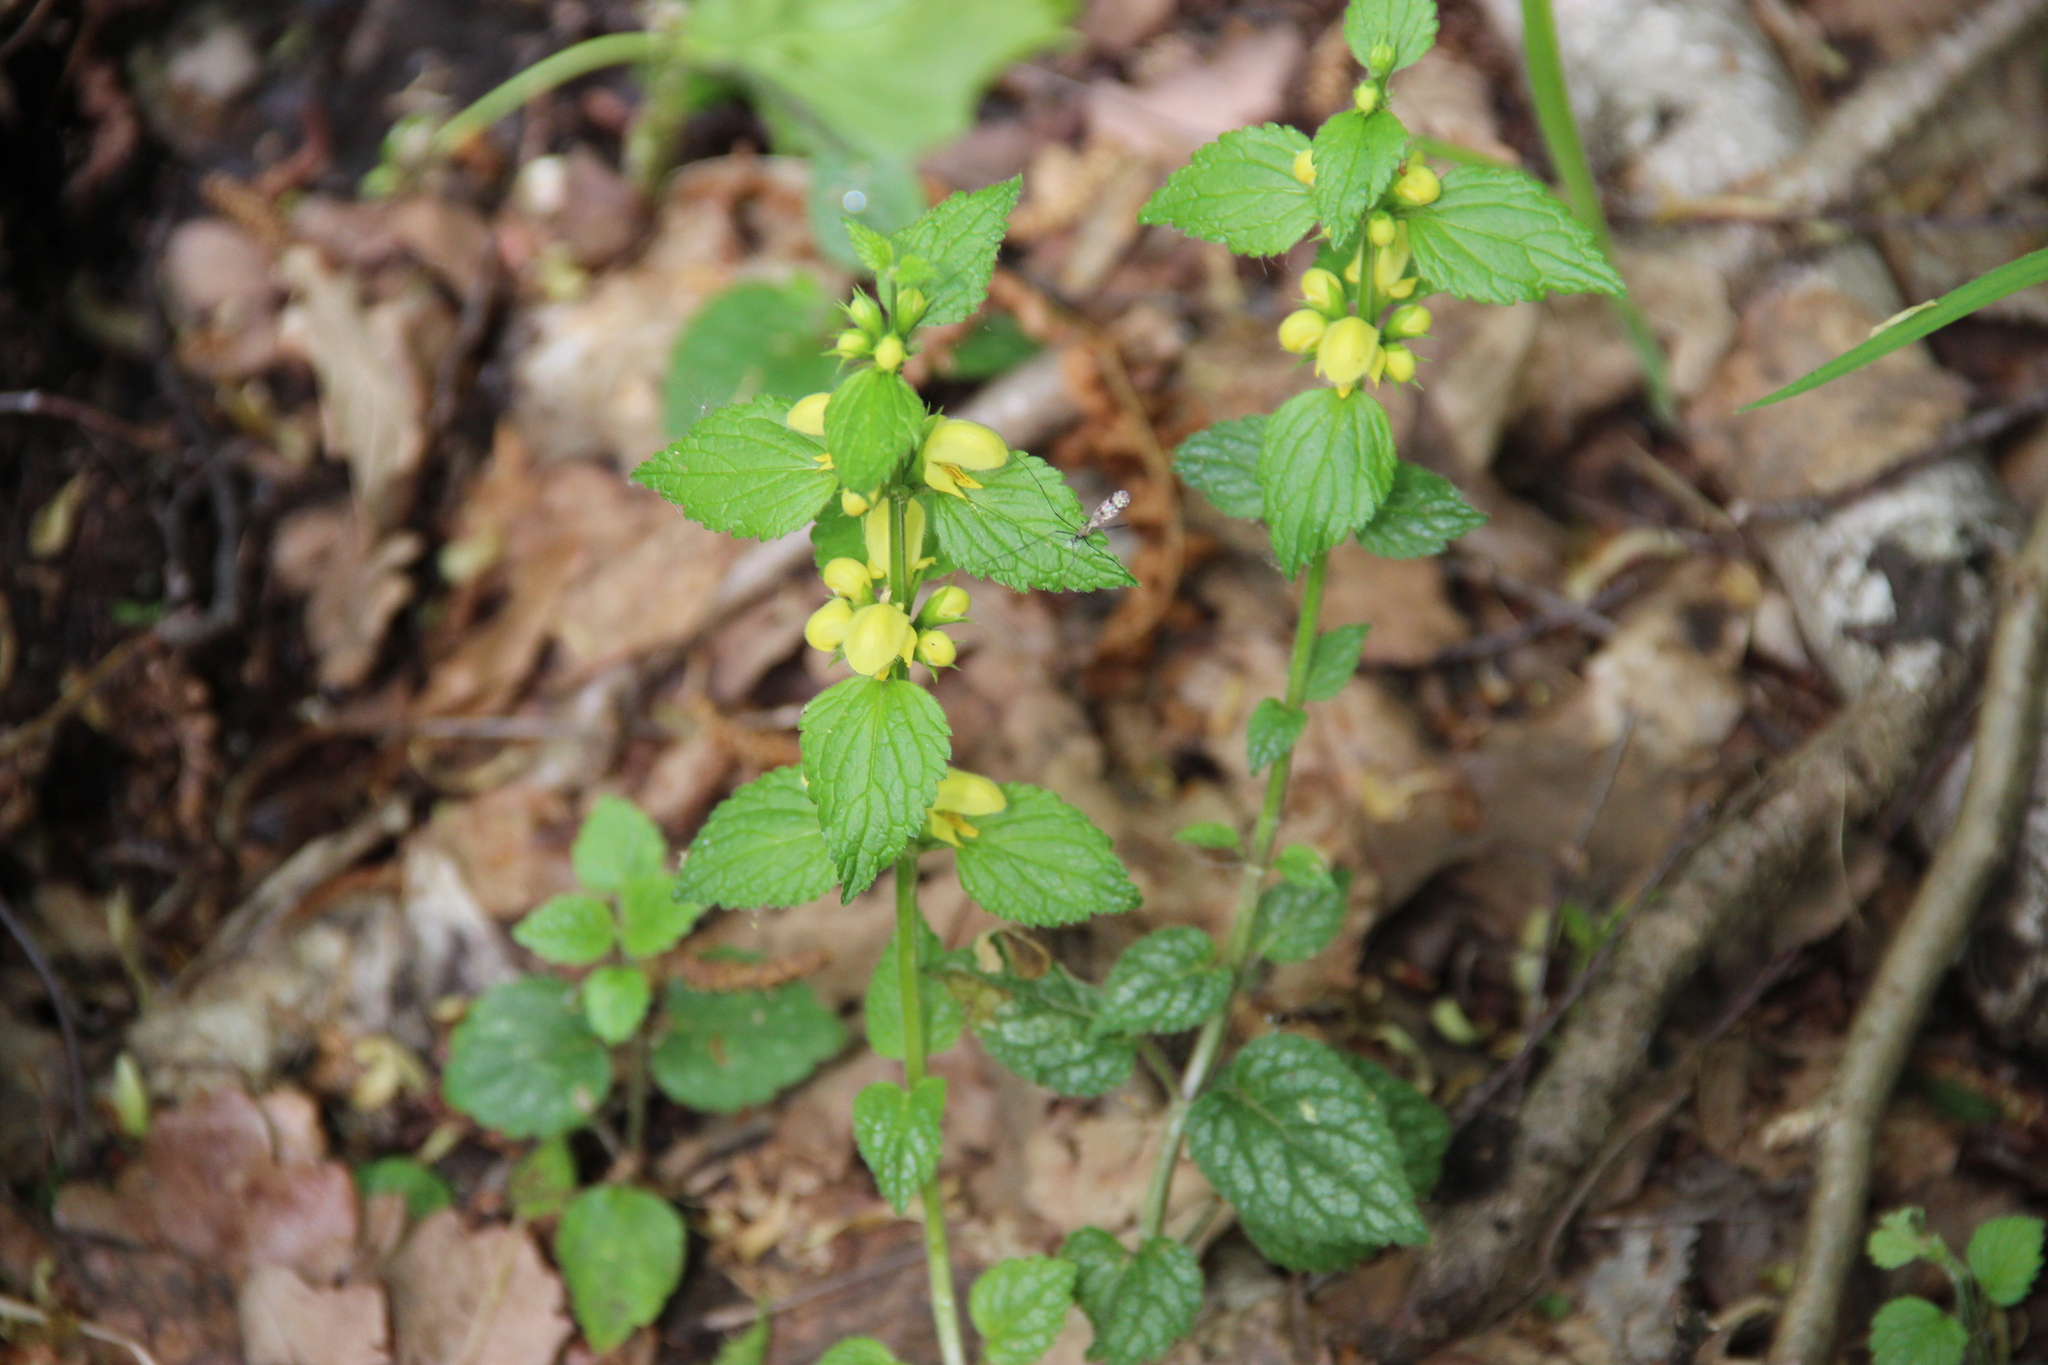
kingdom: Plantae
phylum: Tracheophyta
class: Magnoliopsida
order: Lamiales
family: Lamiaceae
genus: Lamium
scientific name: Lamium galeobdolon
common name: Yellow archangel
